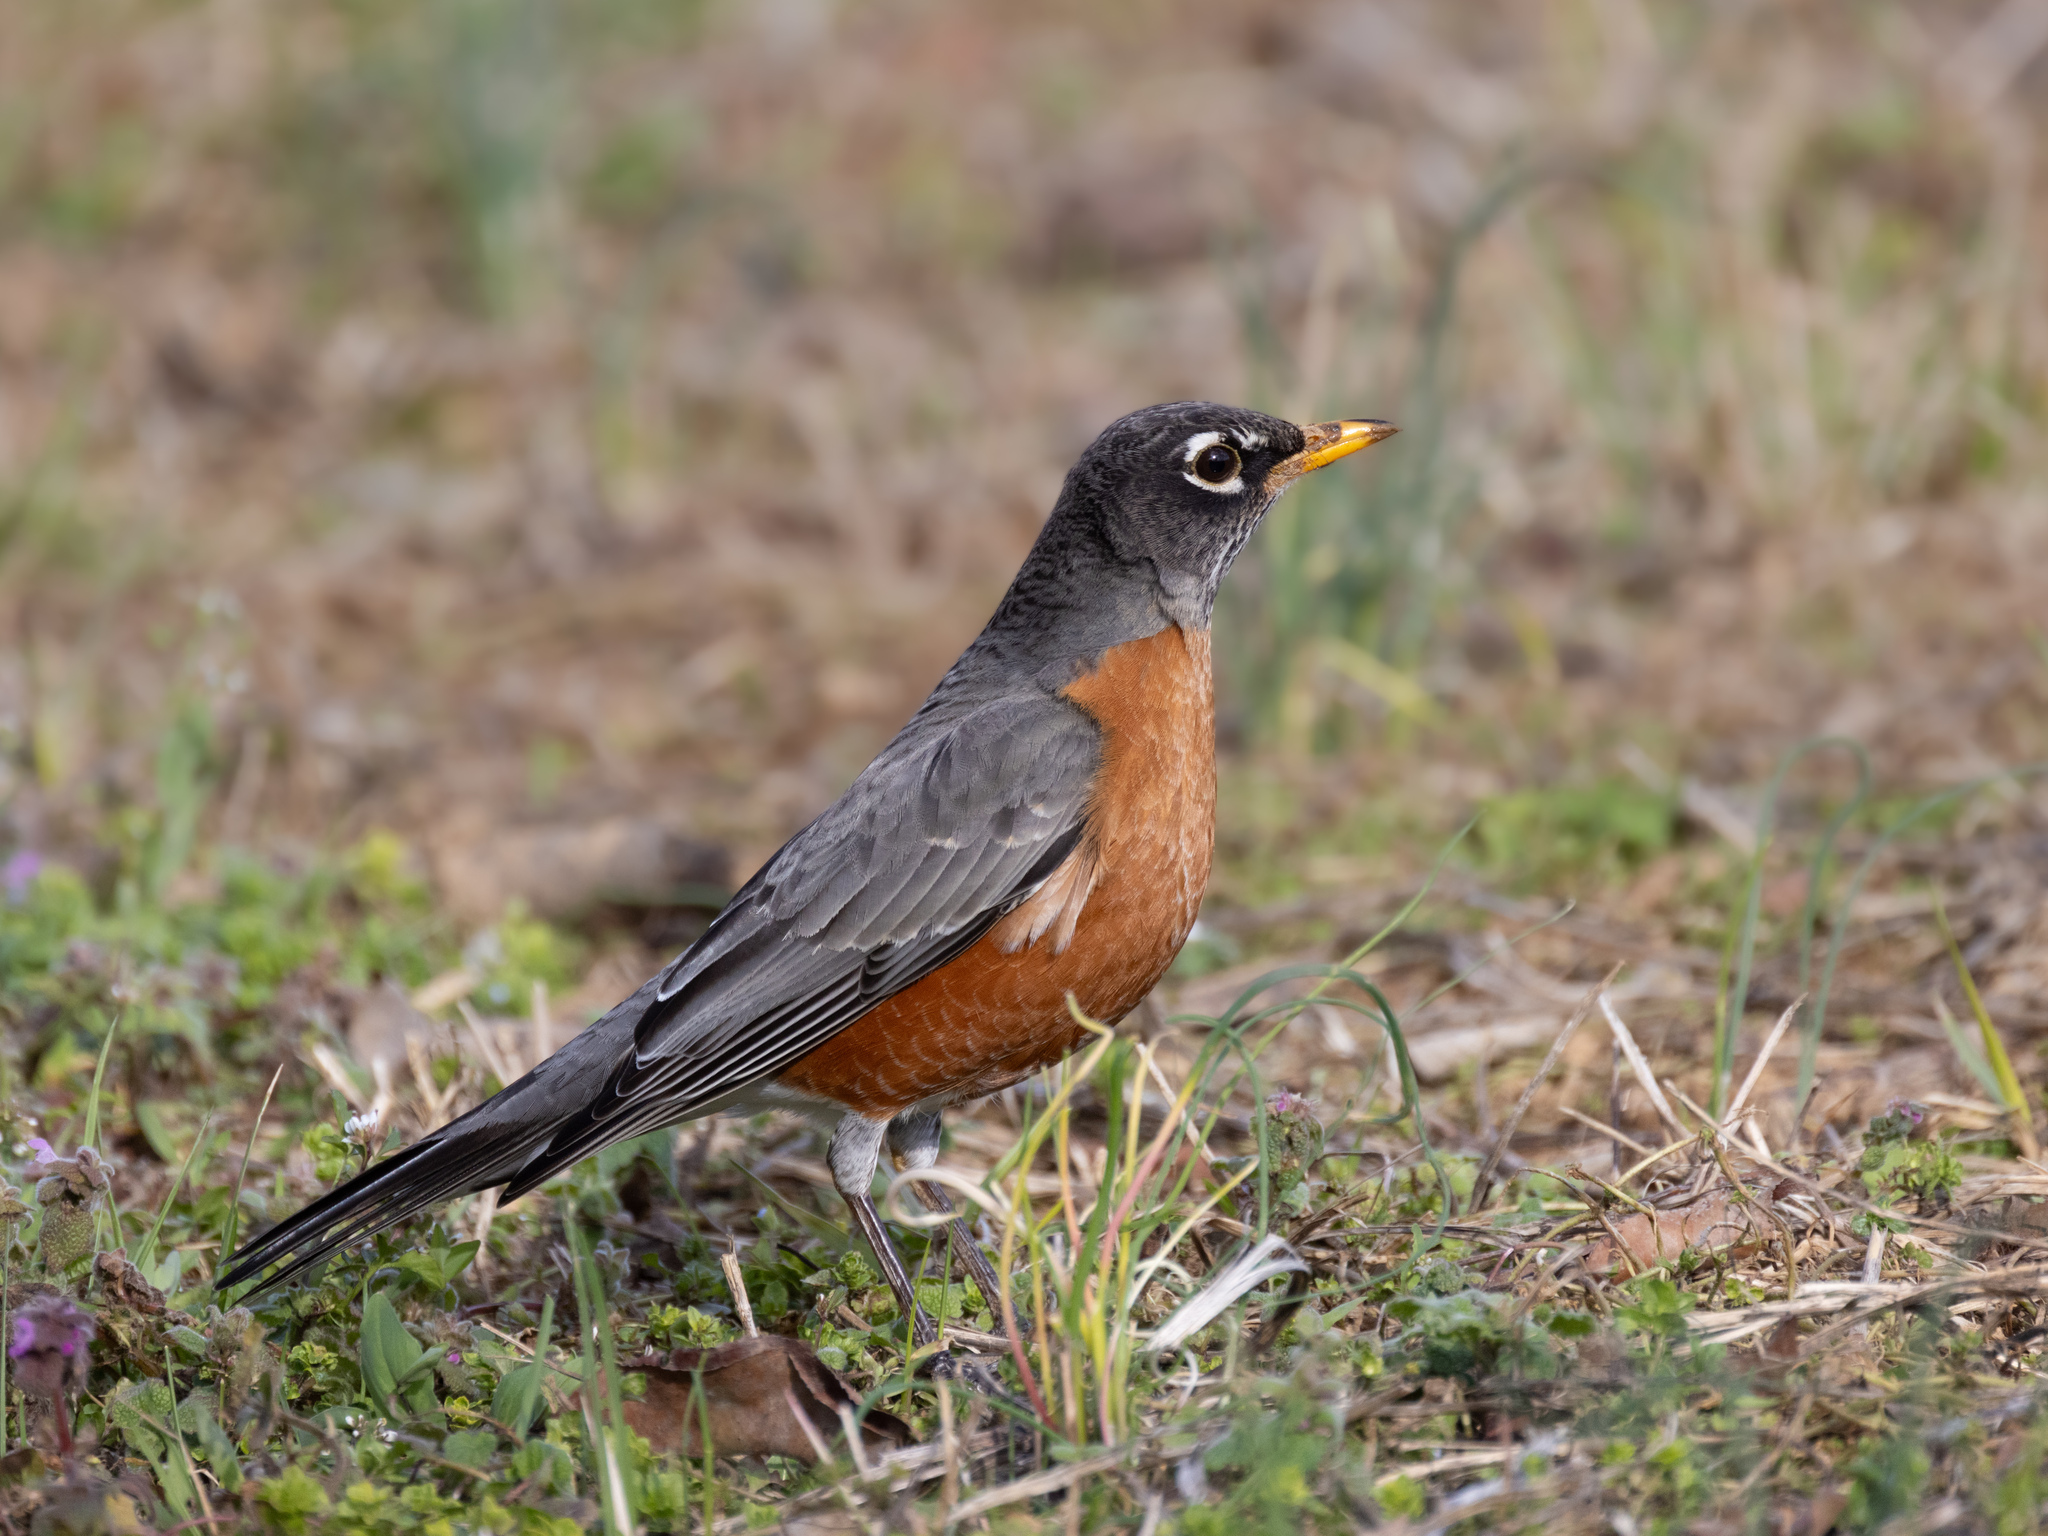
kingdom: Animalia
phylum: Chordata
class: Aves
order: Passeriformes
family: Turdidae
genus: Turdus
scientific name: Turdus migratorius
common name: American robin
